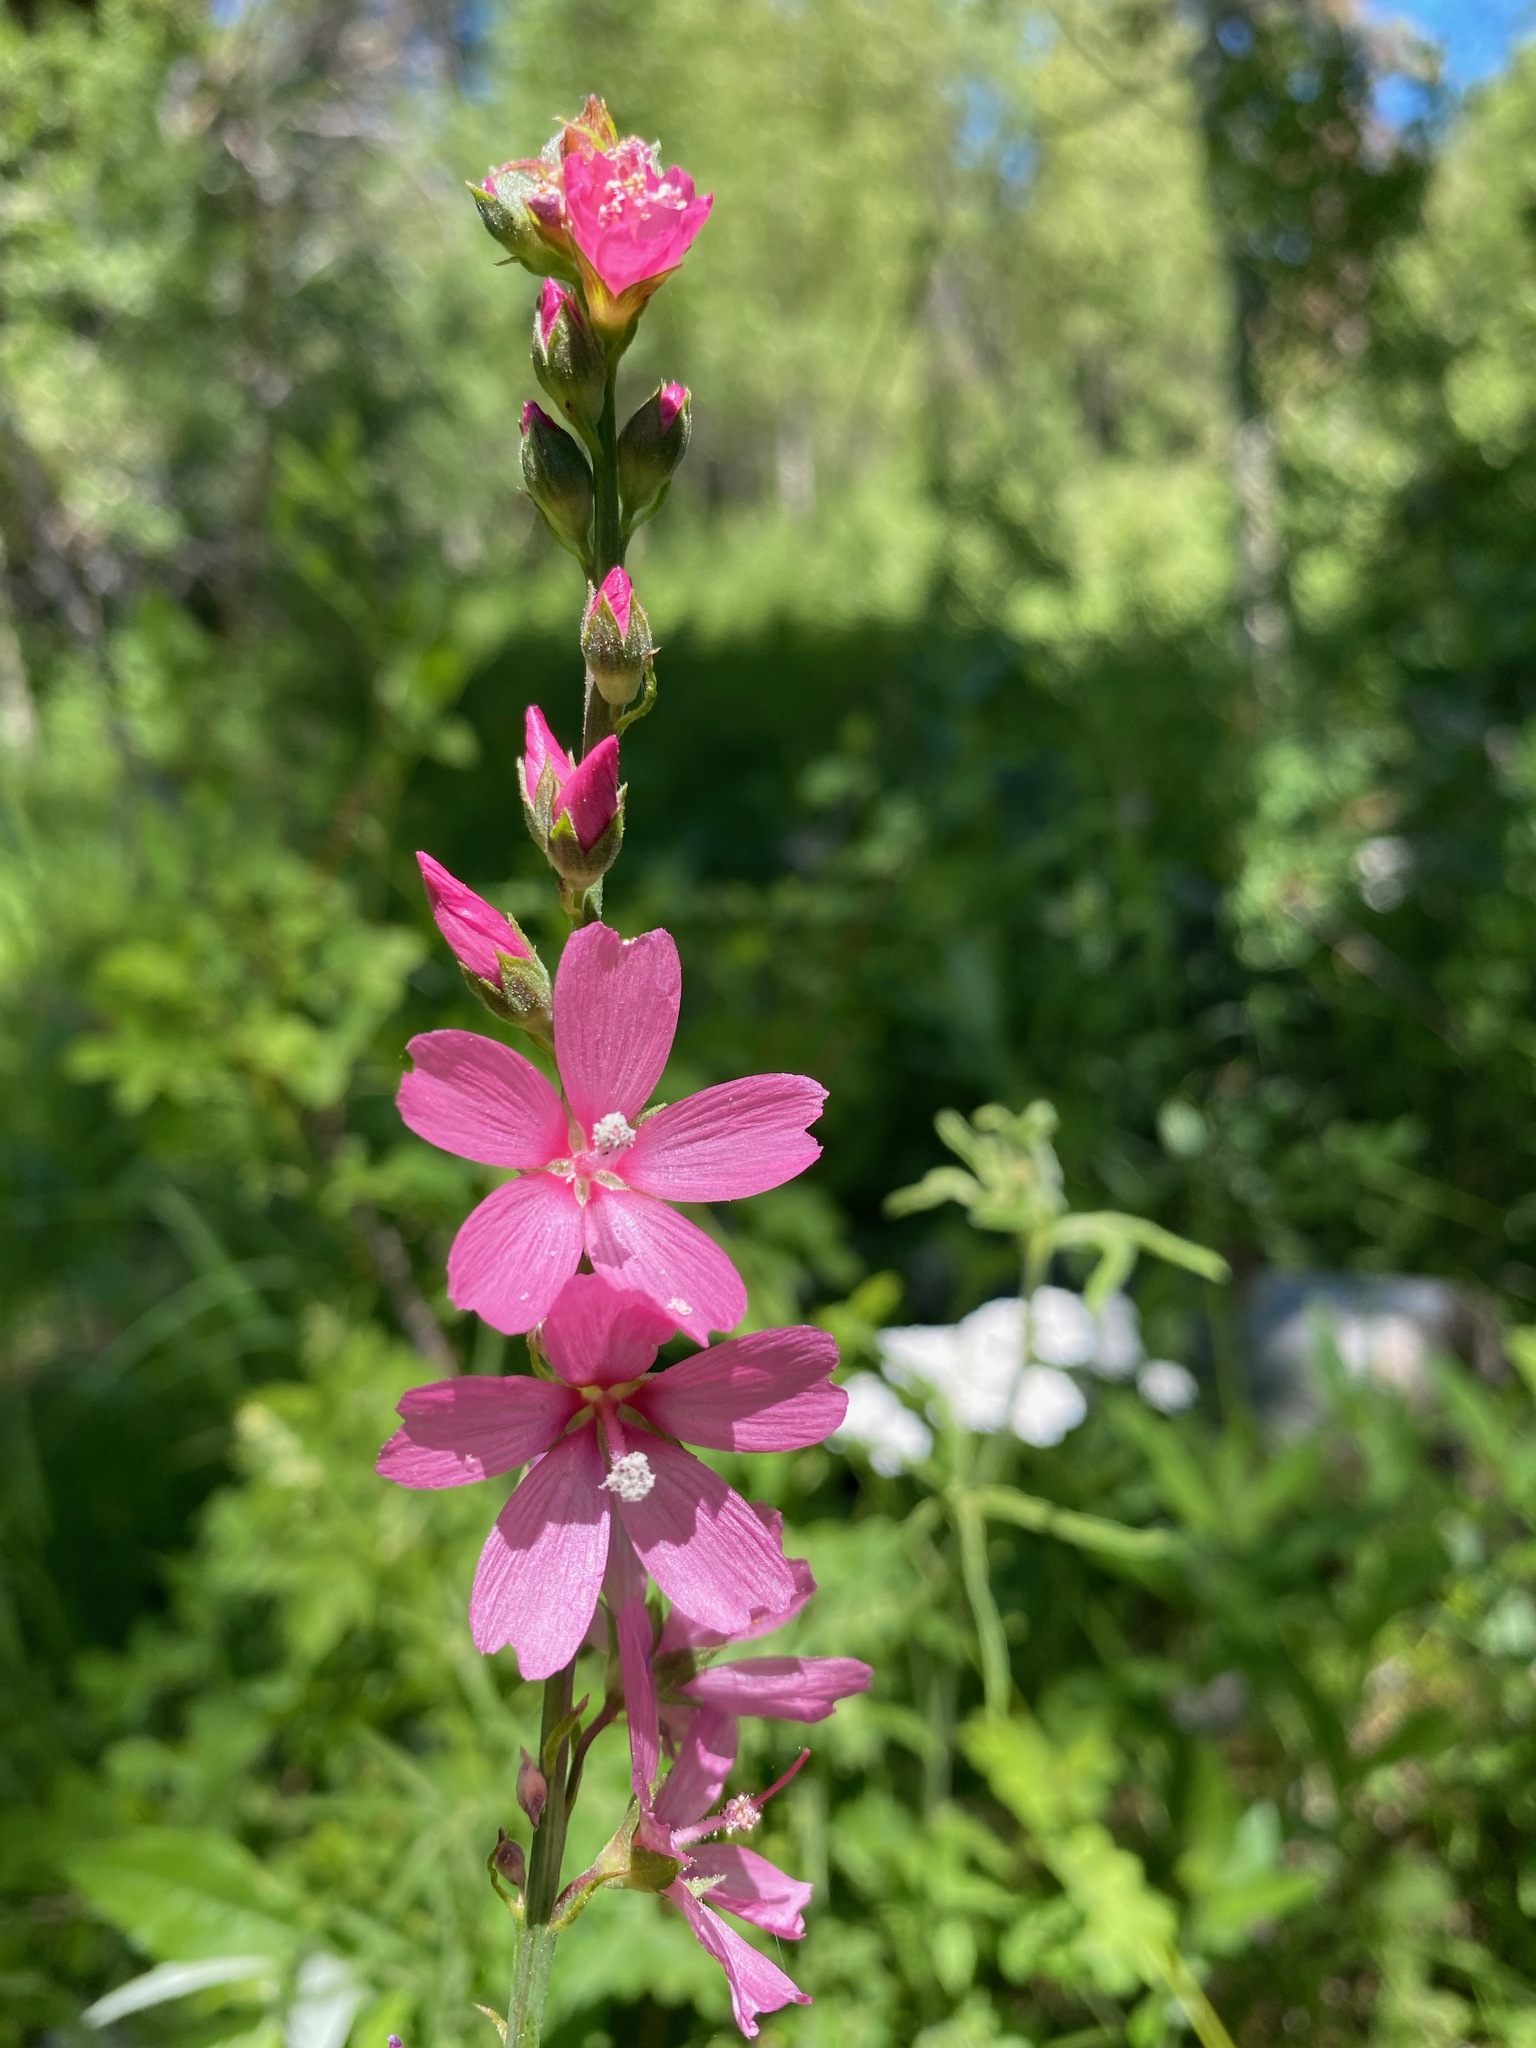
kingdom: Plantae
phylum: Tracheophyta
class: Magnoliopsida
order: Malvales
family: Malvaceae
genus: Sidalcea
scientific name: Sidalcea oregana
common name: Oregon checker-mallow
